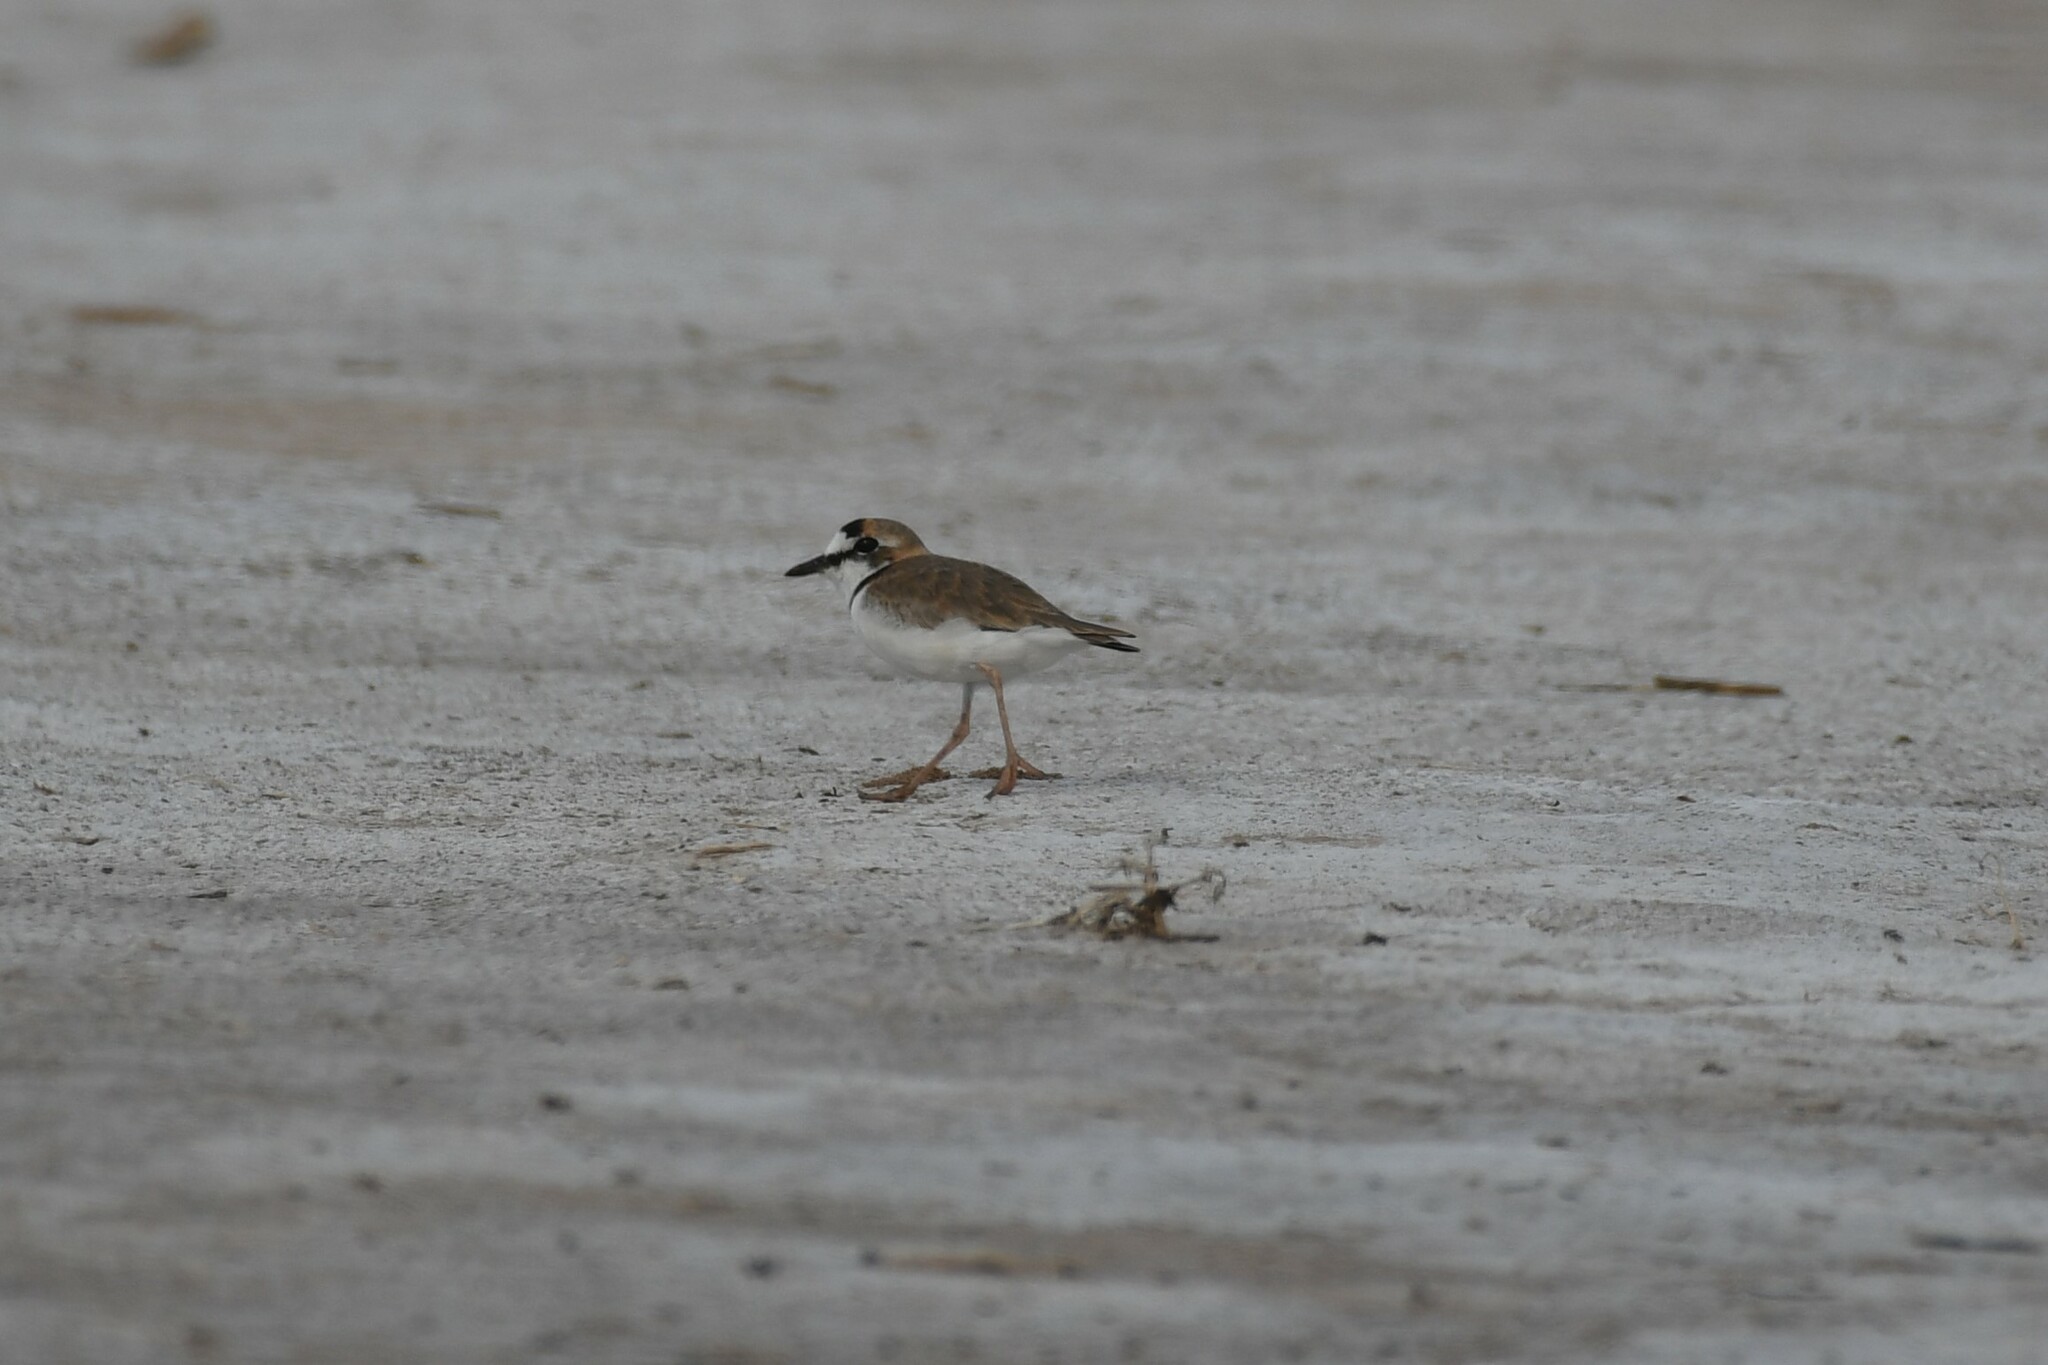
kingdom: Animalia
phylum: Chordata
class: Aves
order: Charadriiformes
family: Charadriidae
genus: Anarhynchus
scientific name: Anarhynchus
